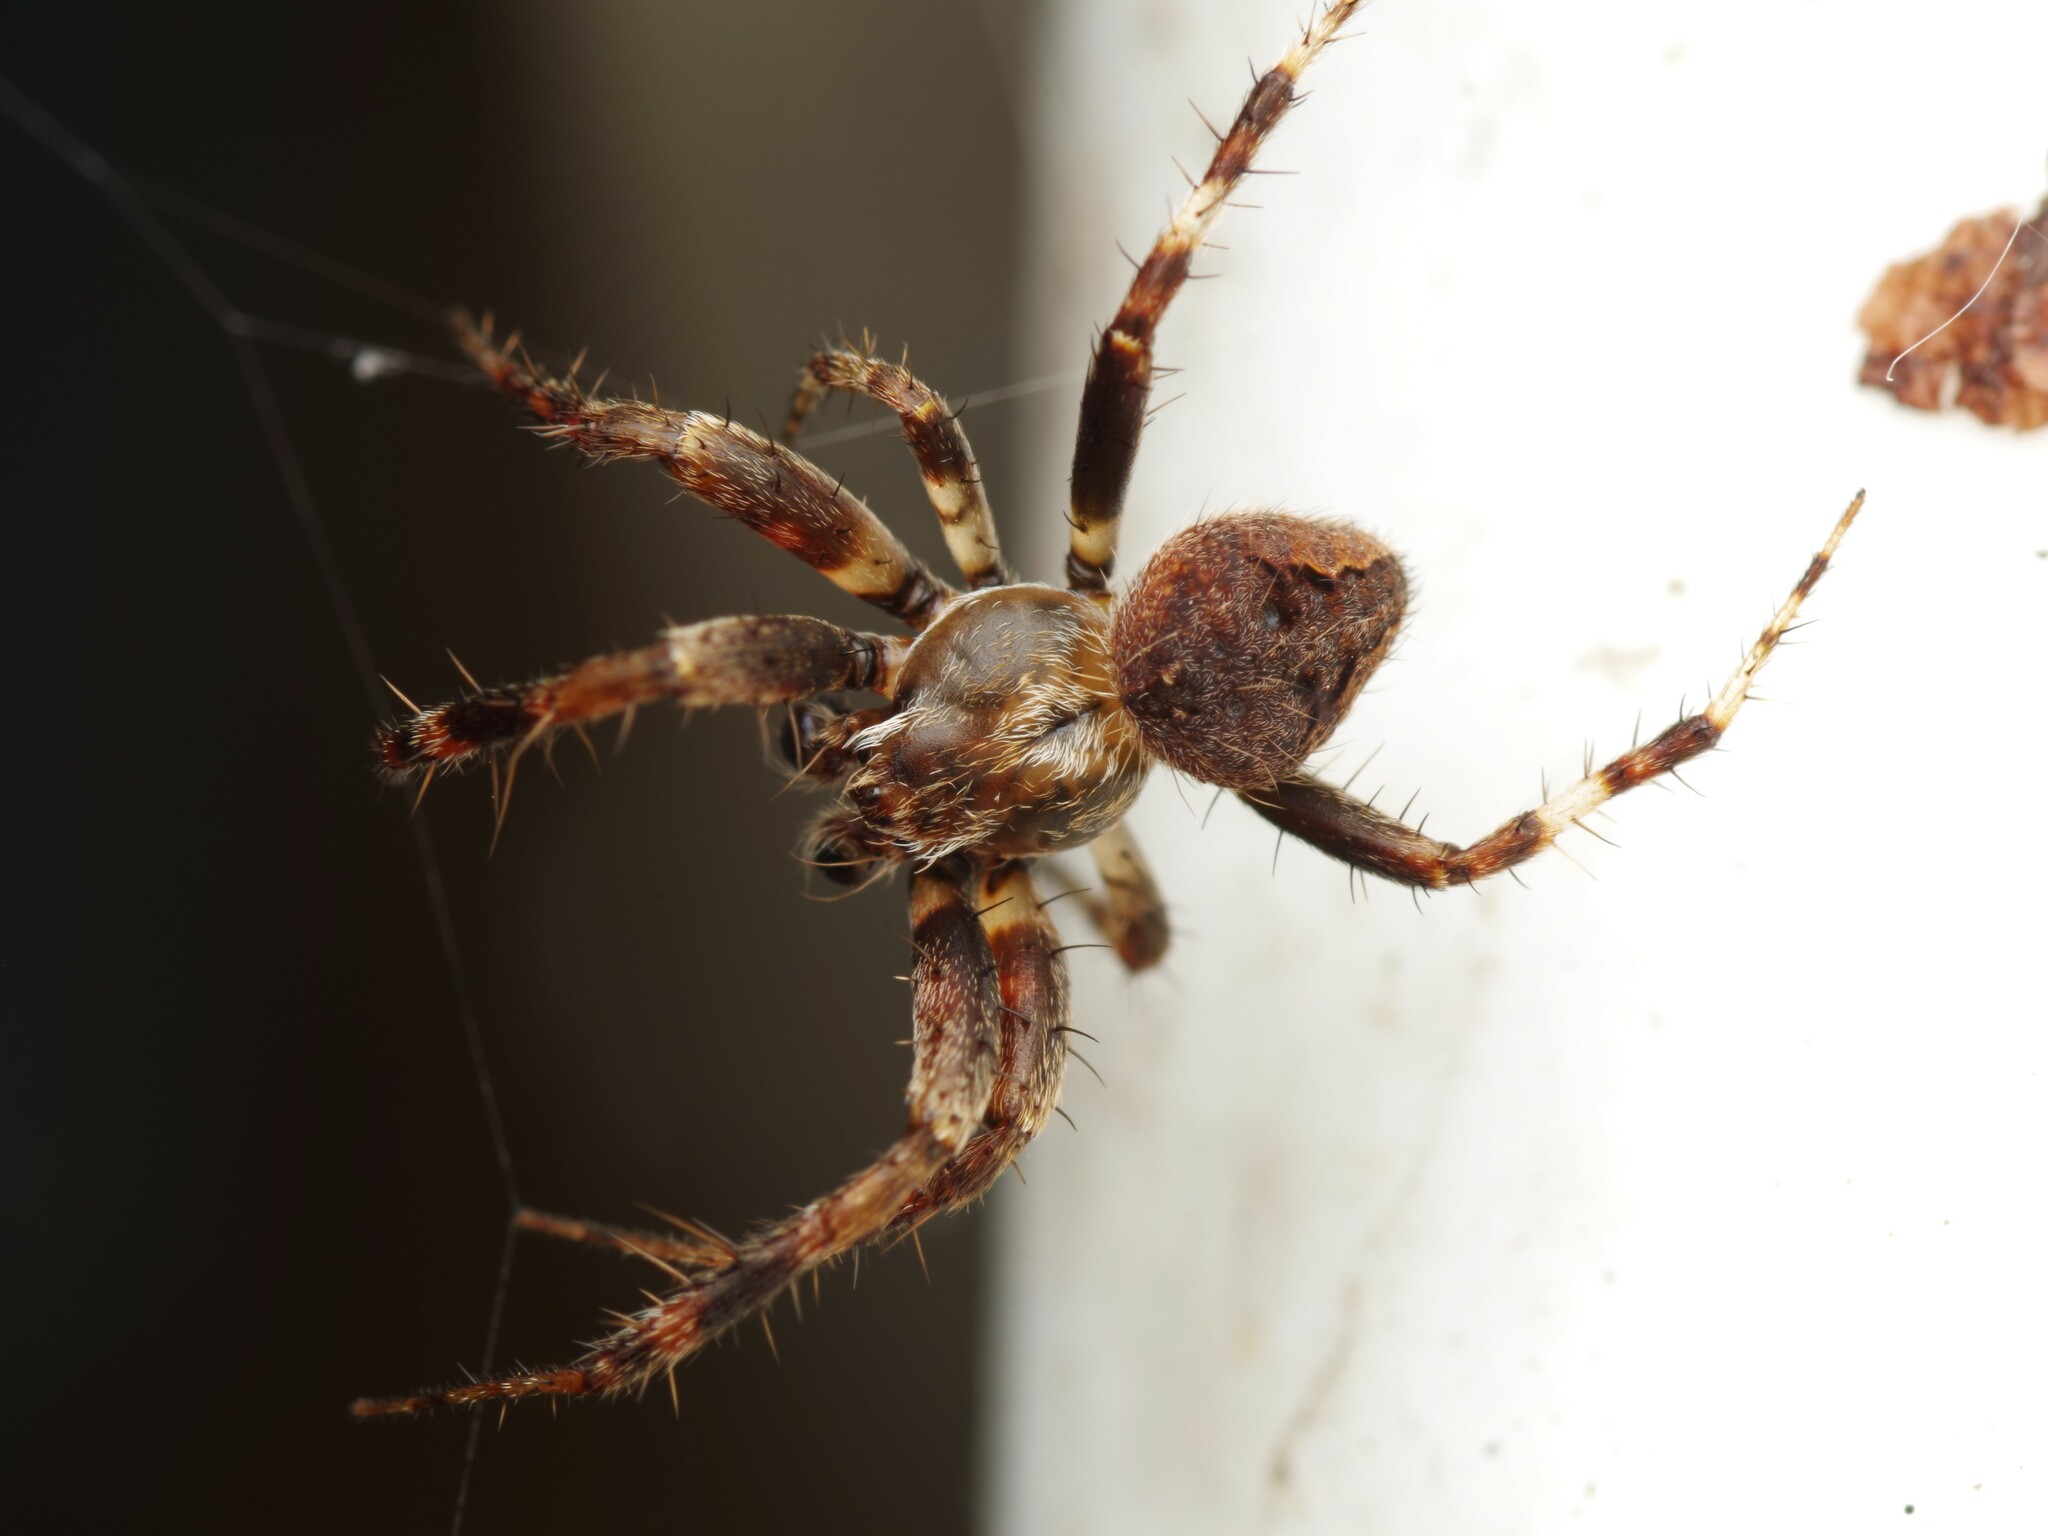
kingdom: Animalia
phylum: Arthropoda
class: Arachnida
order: Araneae
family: Araneidae
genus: Neoscona
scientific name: Neoscona subfusca
